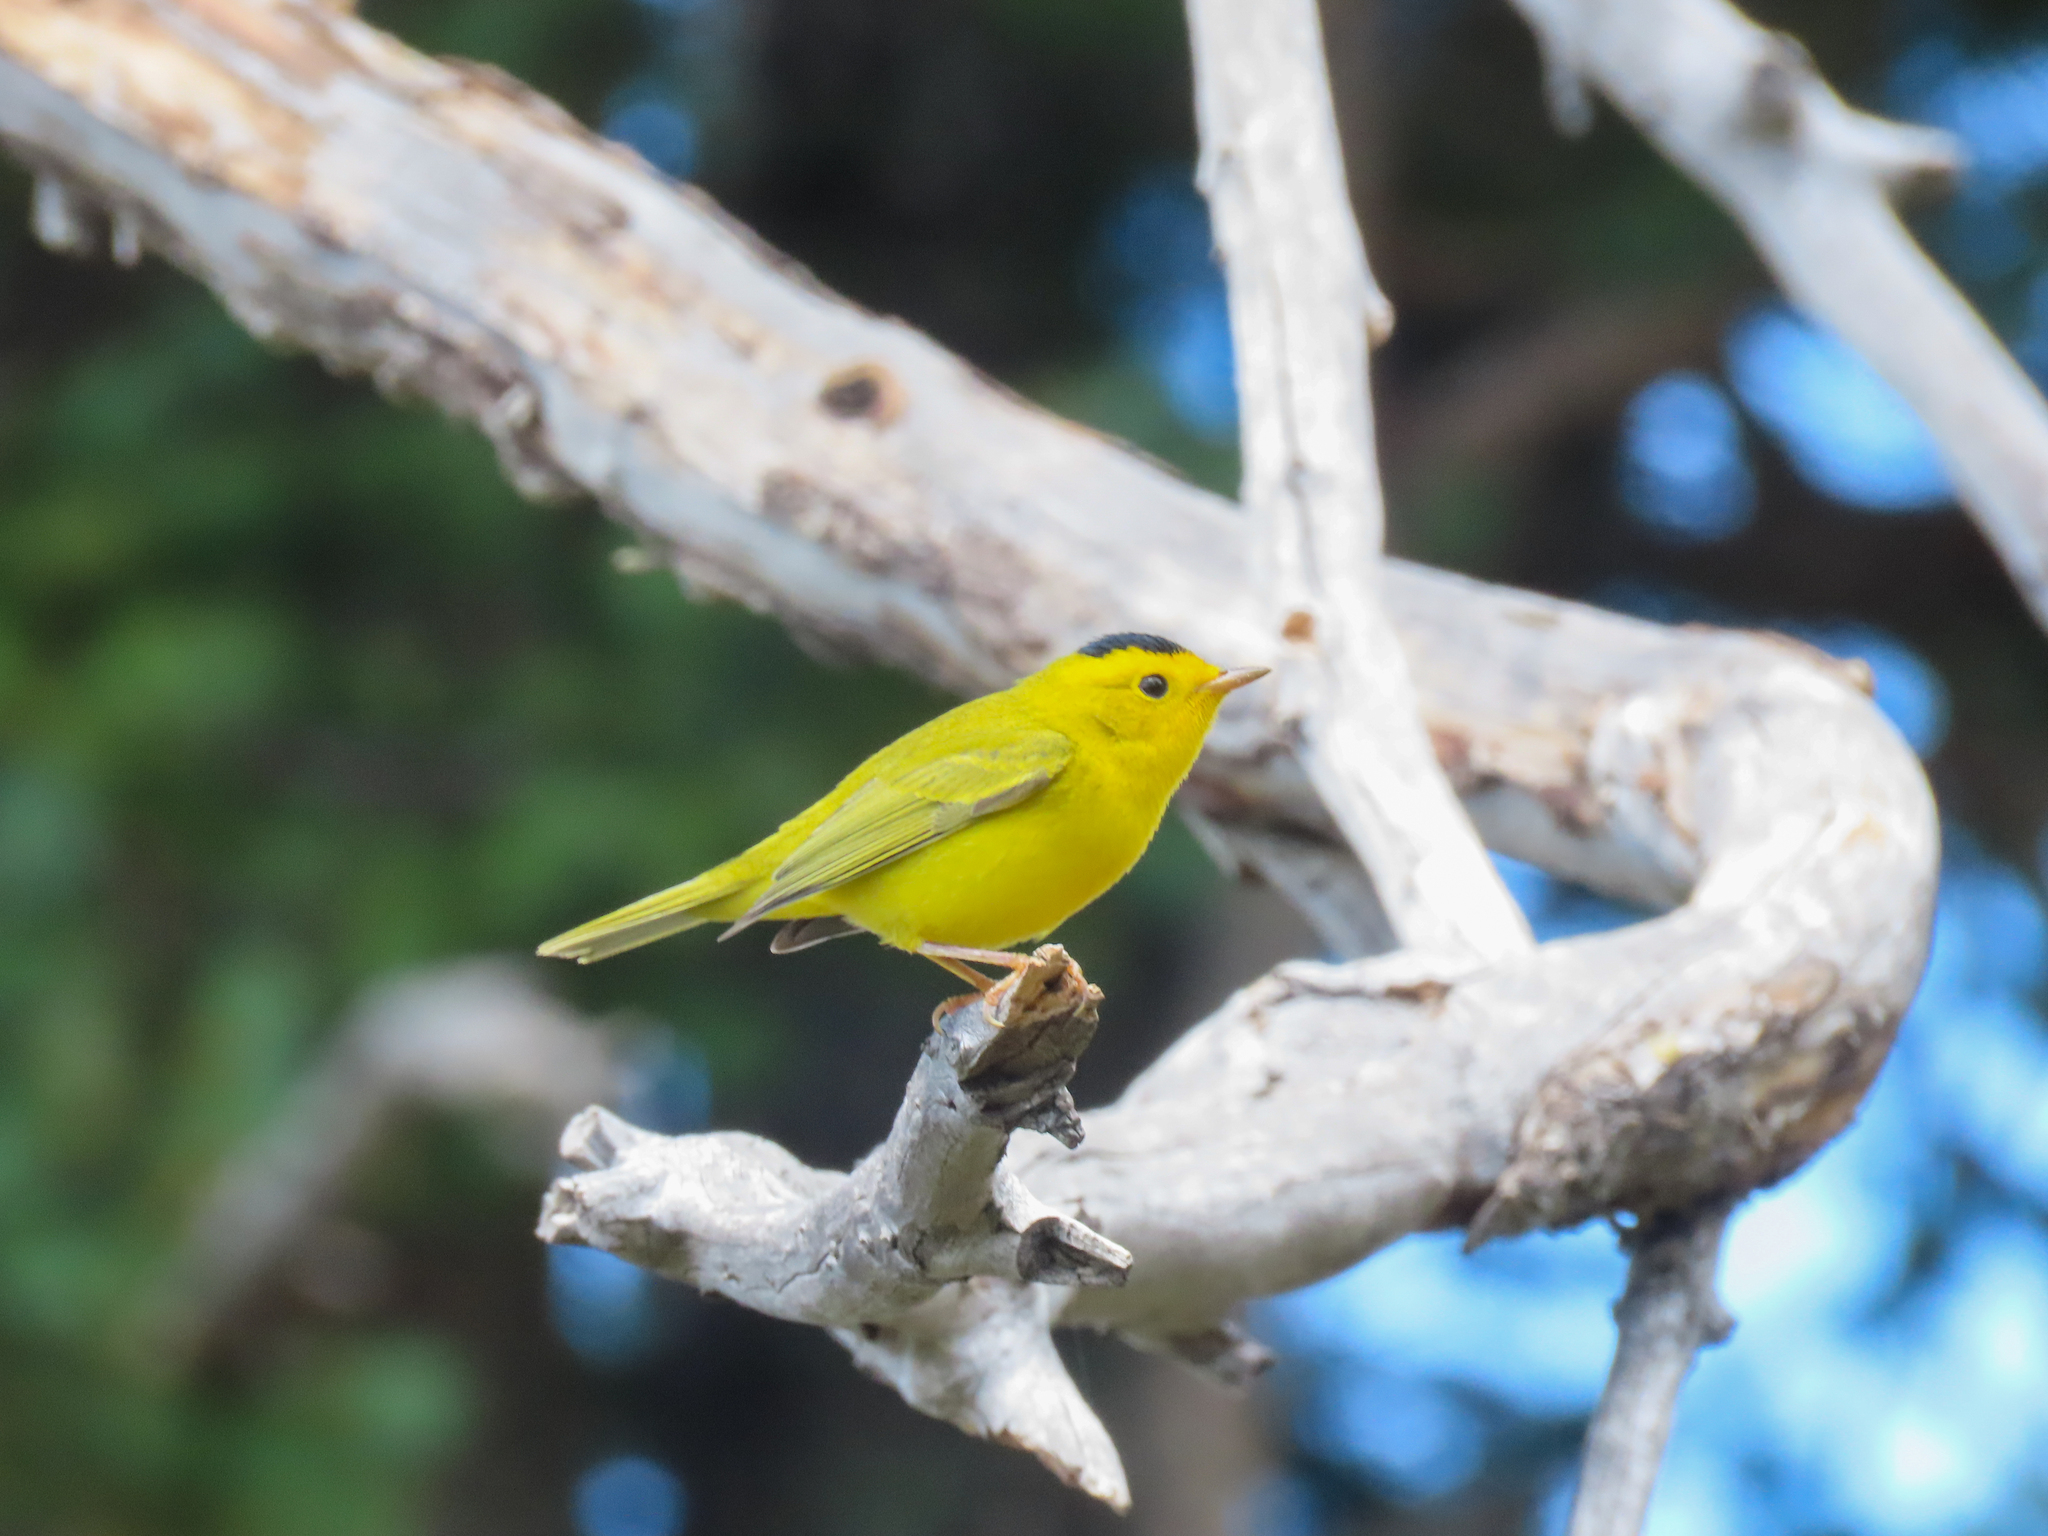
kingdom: Animalia
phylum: Chordata
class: Aves
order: Passeriformes
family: Parulidae
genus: Cardellina
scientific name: Cardellina pusilla
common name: Wilson's warbler
